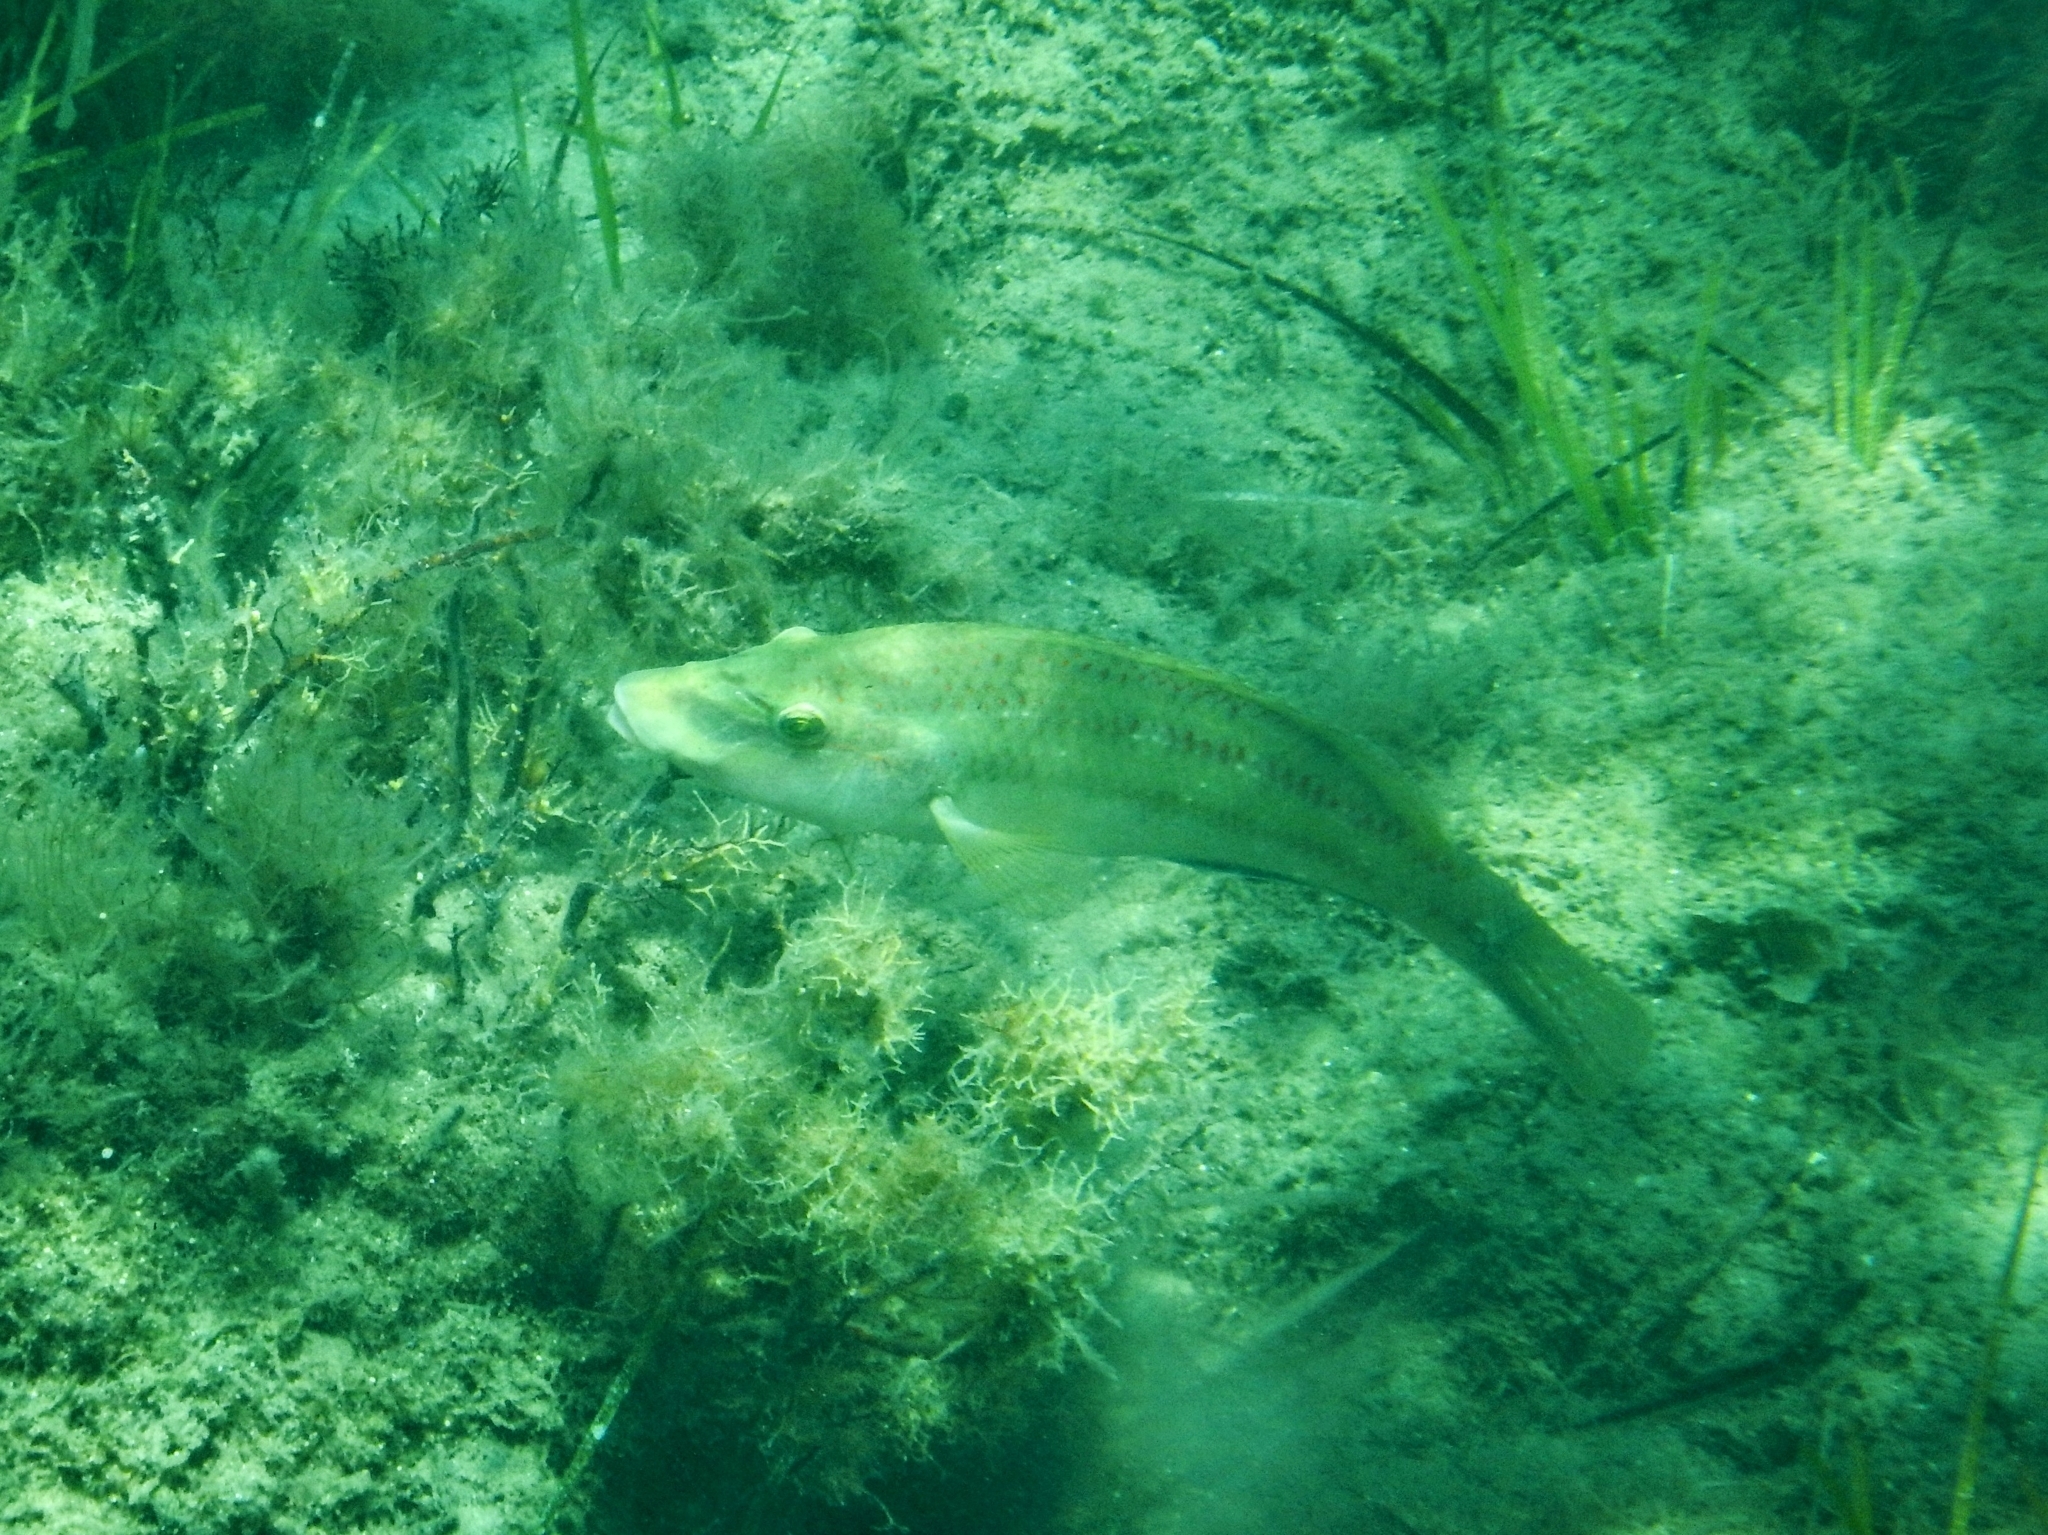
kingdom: Animalia
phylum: Chordata
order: Perciformes
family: Labridae
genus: Symphodus
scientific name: Symphodus tinca
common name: Peacock wrasse
